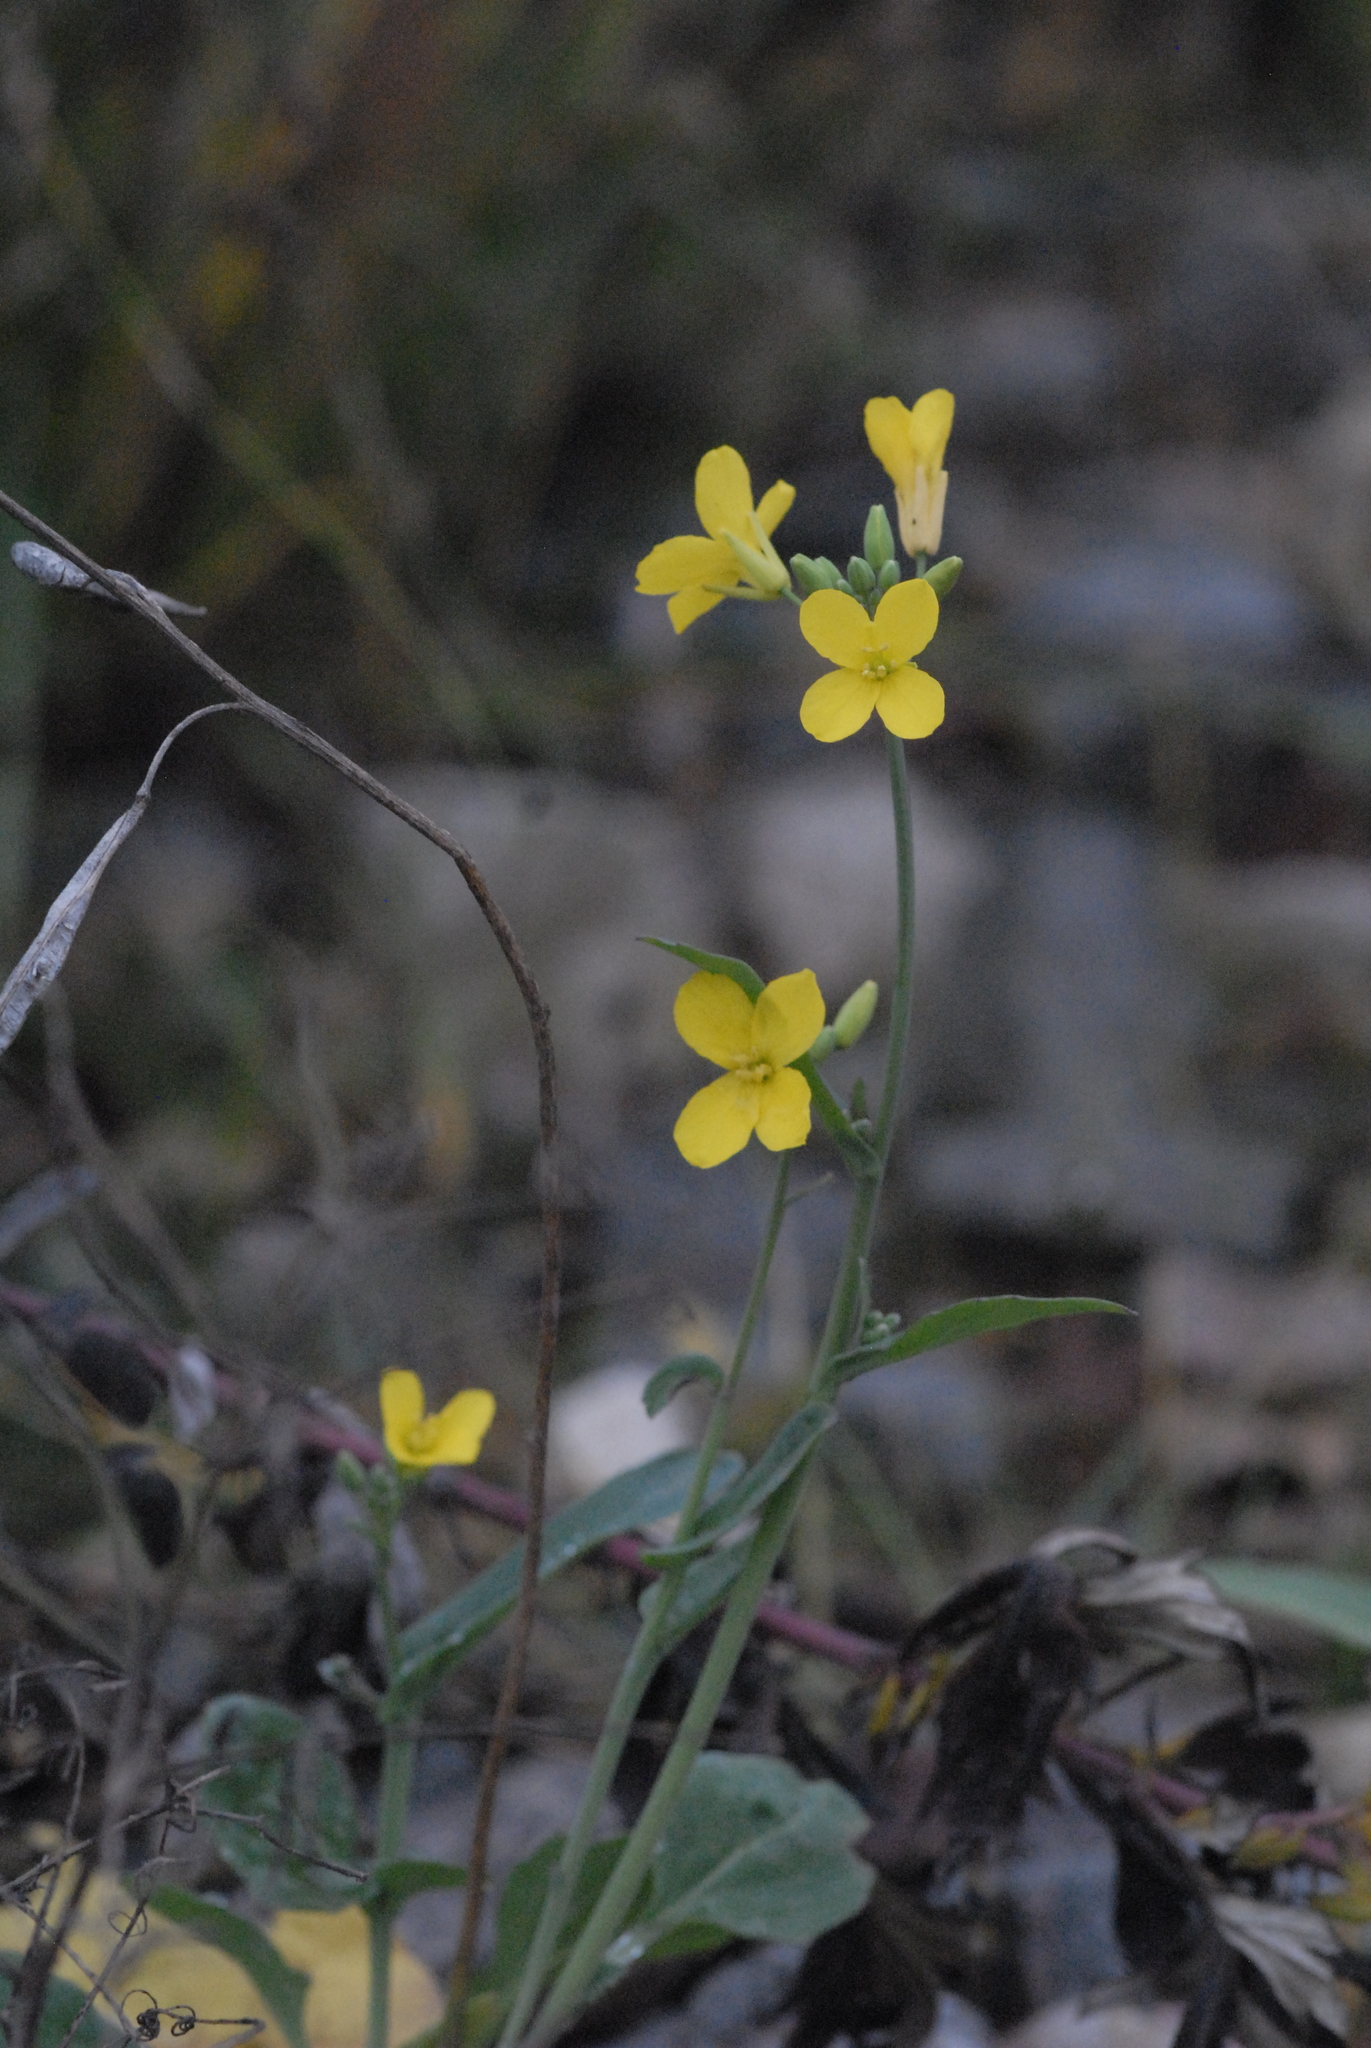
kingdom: Plantae
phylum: Tracheophyta
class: Magnoliopsida
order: Brassicales
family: Brassicaceae
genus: Brassica
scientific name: Brassica napus
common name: Rape
